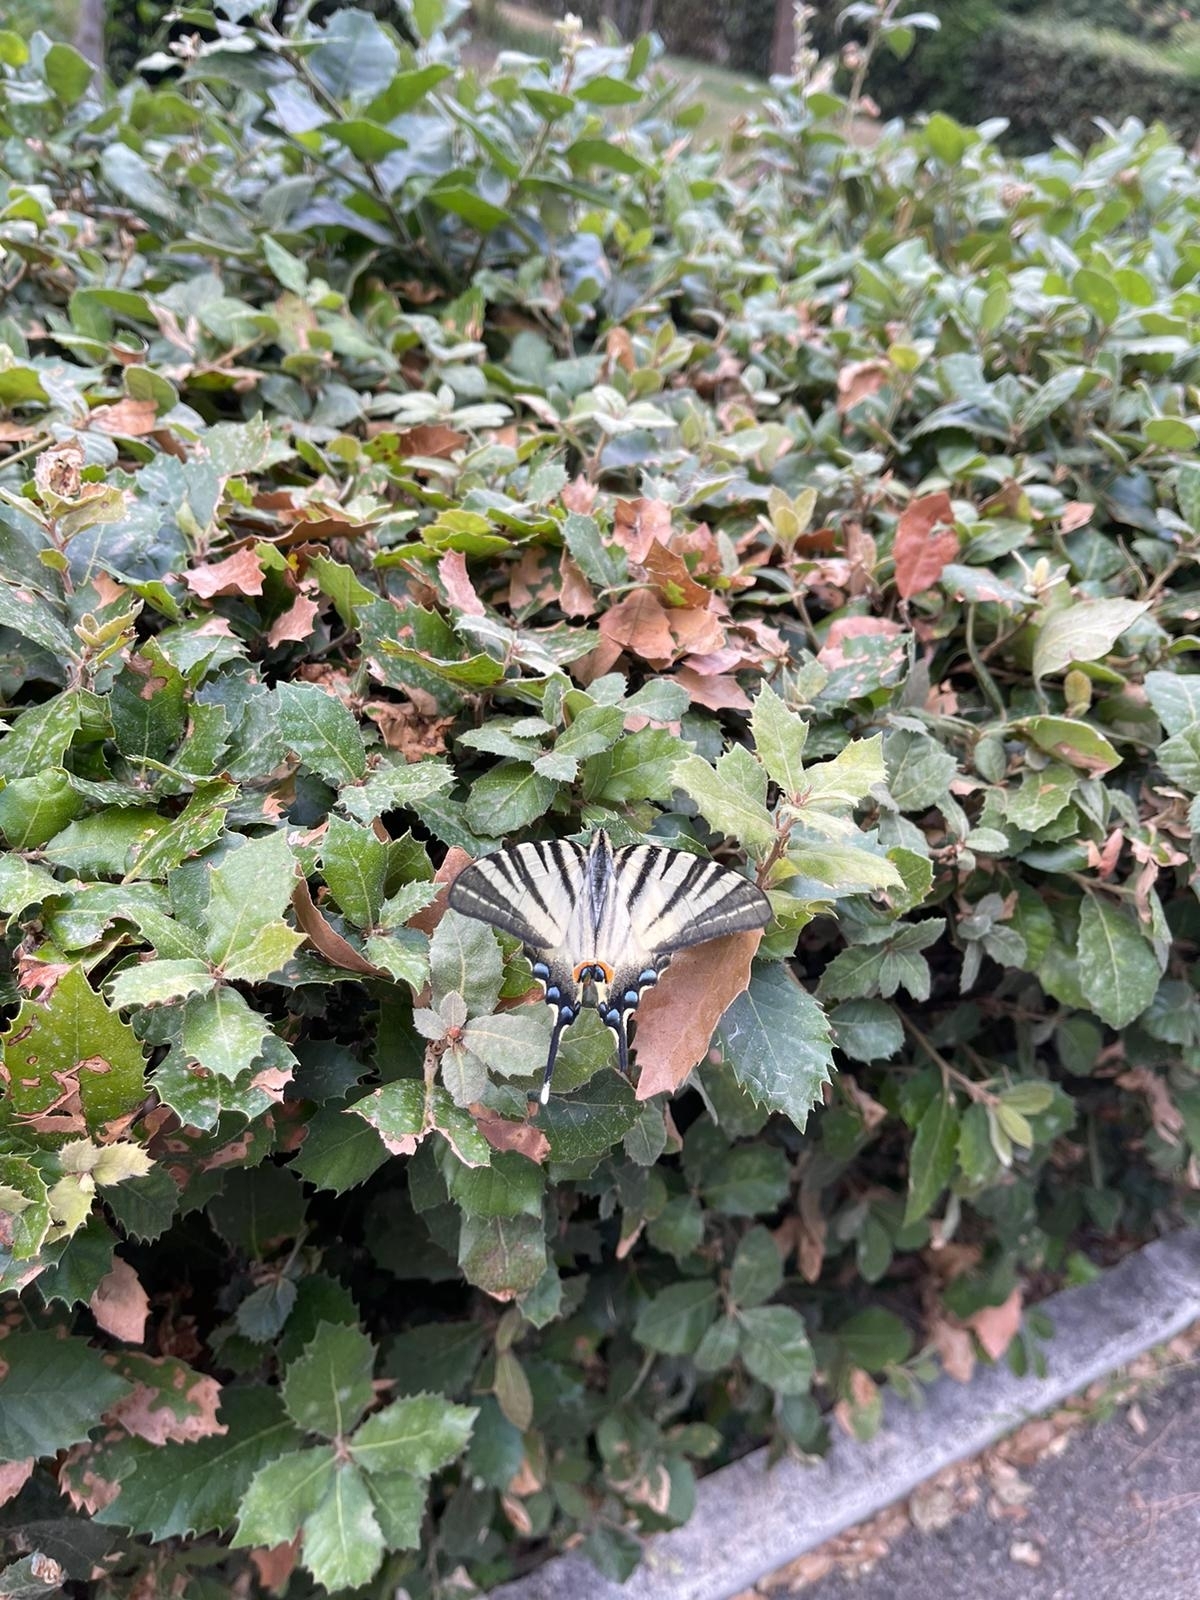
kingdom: Animalia
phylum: Arthropoda
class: Insecta
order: Lepidoptera
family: Papilionidae
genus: Iphiclides
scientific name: Iphiclides podalirius
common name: Scarce swallowtail
